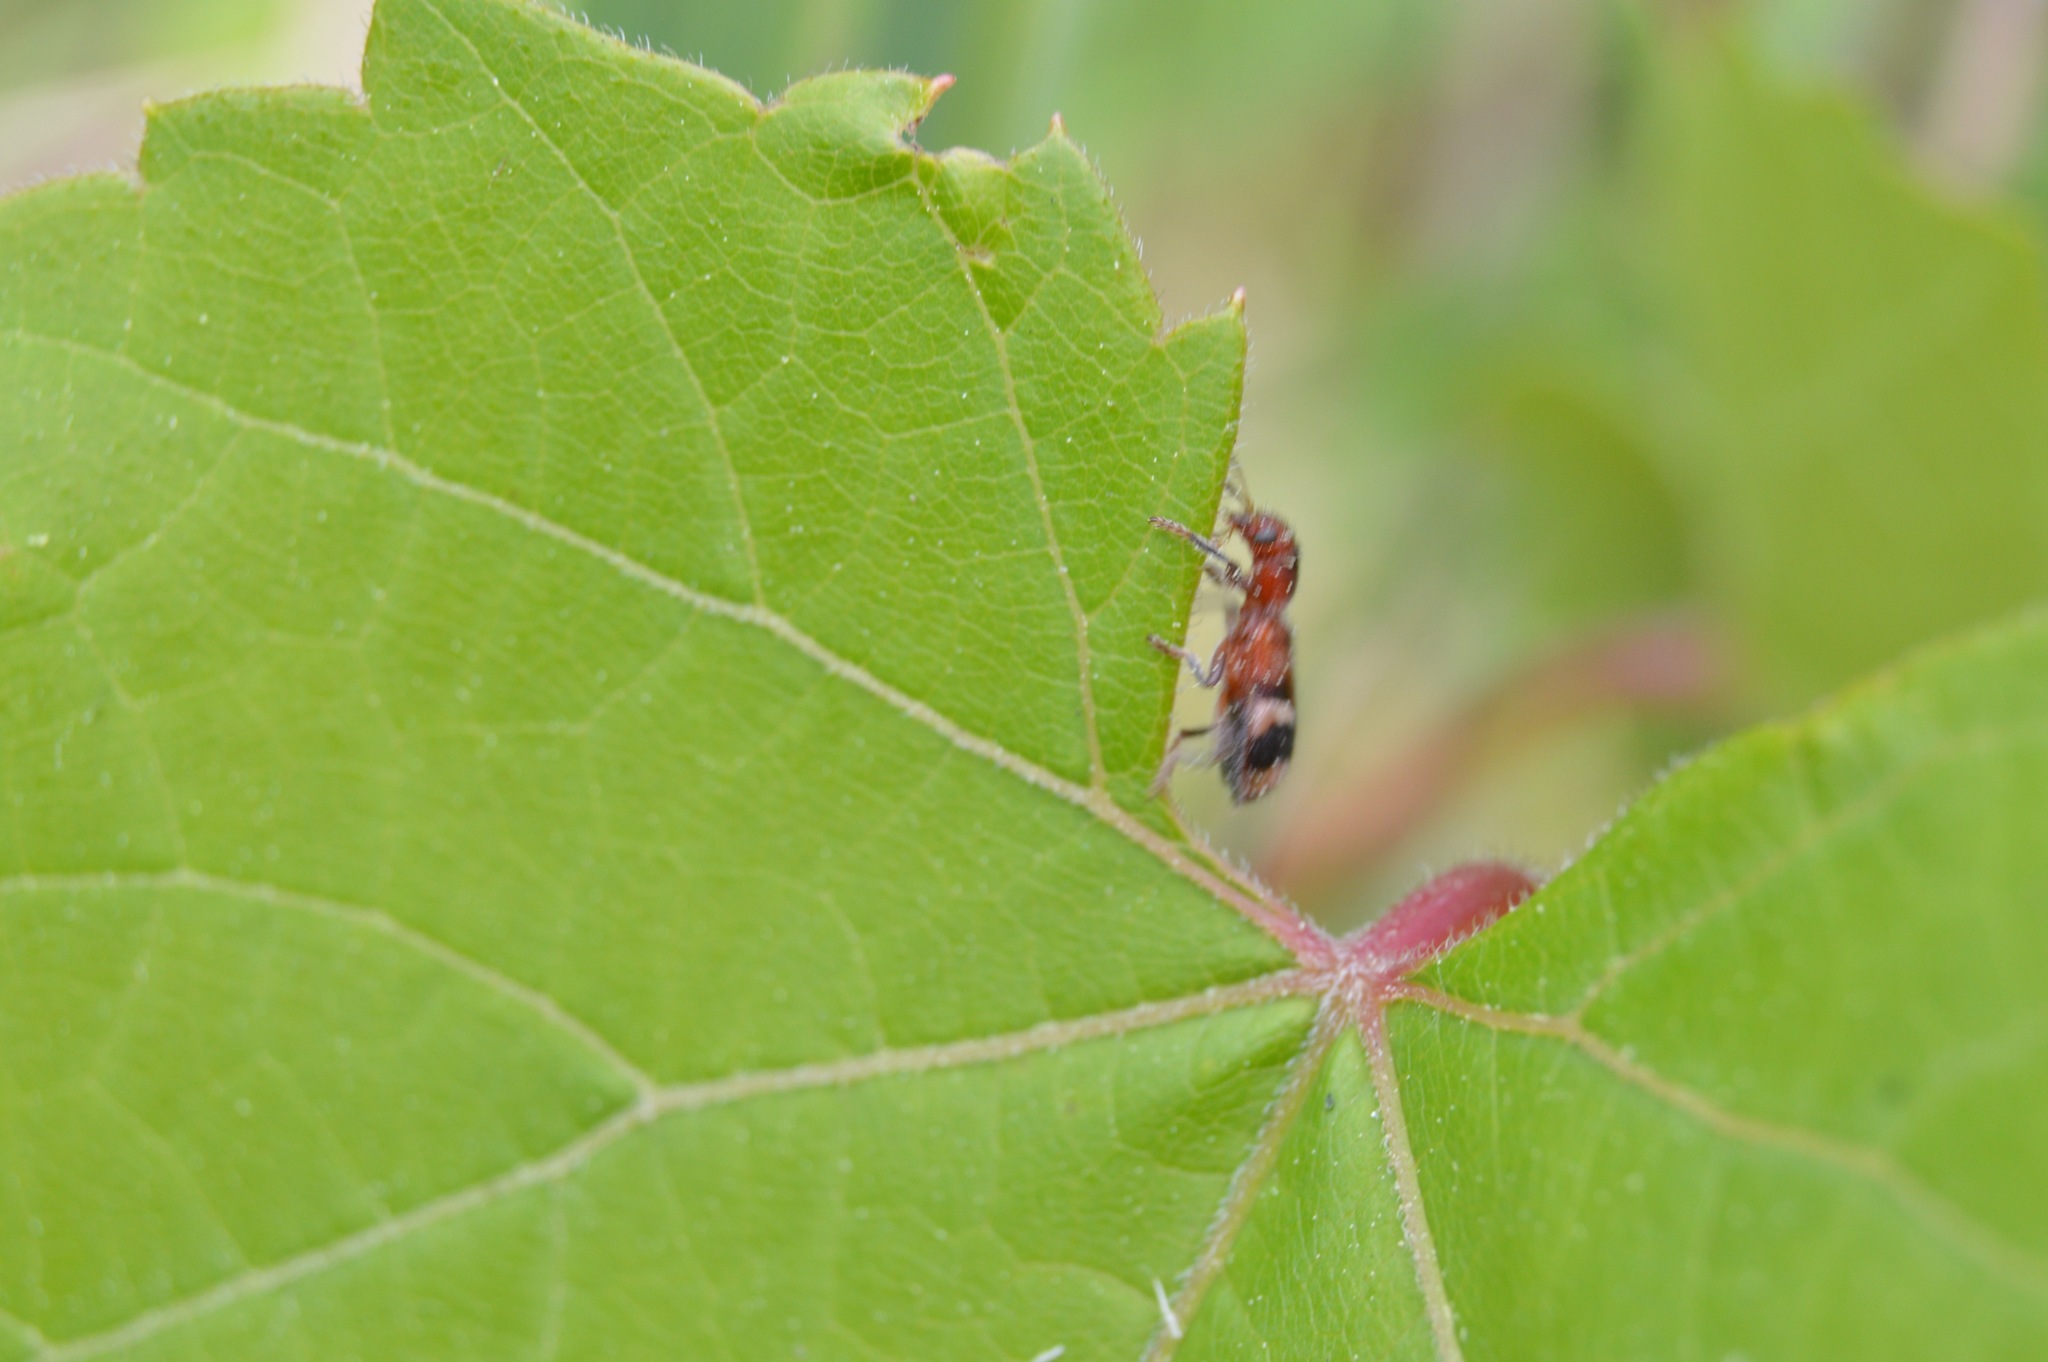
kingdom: Animalia
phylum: Arthropoda
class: Insecta
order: Coleoptera
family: Cleridae
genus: Enoclerus
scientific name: Enoclerus rosmarus
